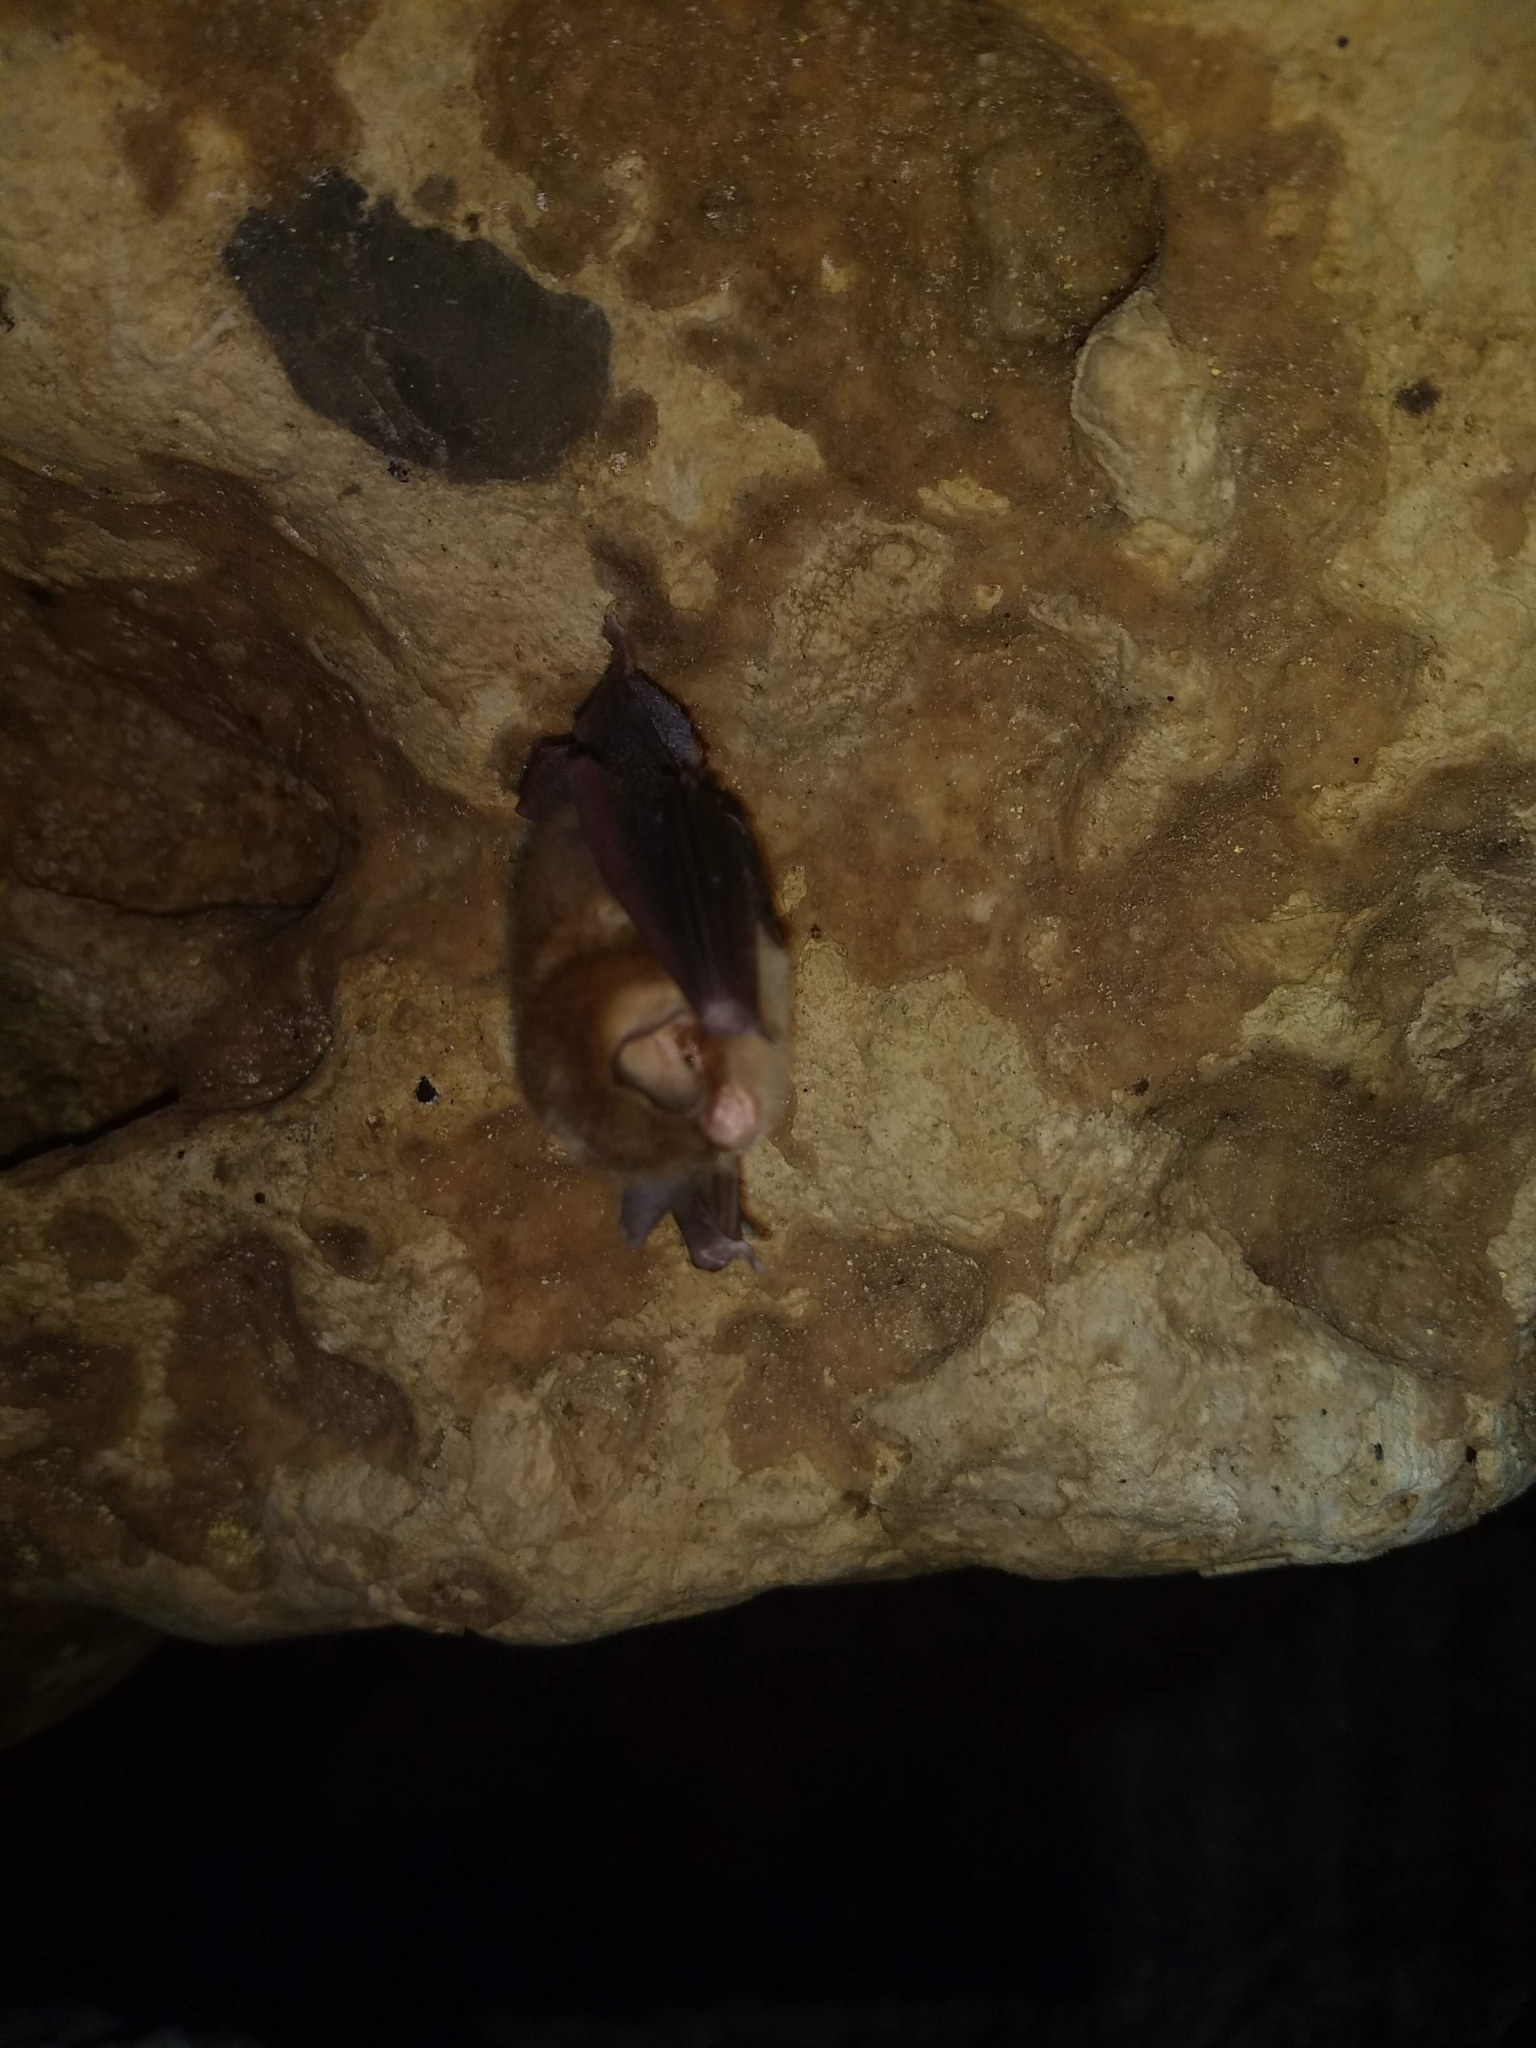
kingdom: Animalia
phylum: Chordata
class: Mammalia
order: Chiroptera
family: Natalidae
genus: Natalus
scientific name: Natalus mexicanus
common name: Mexican funnel-eared bat
